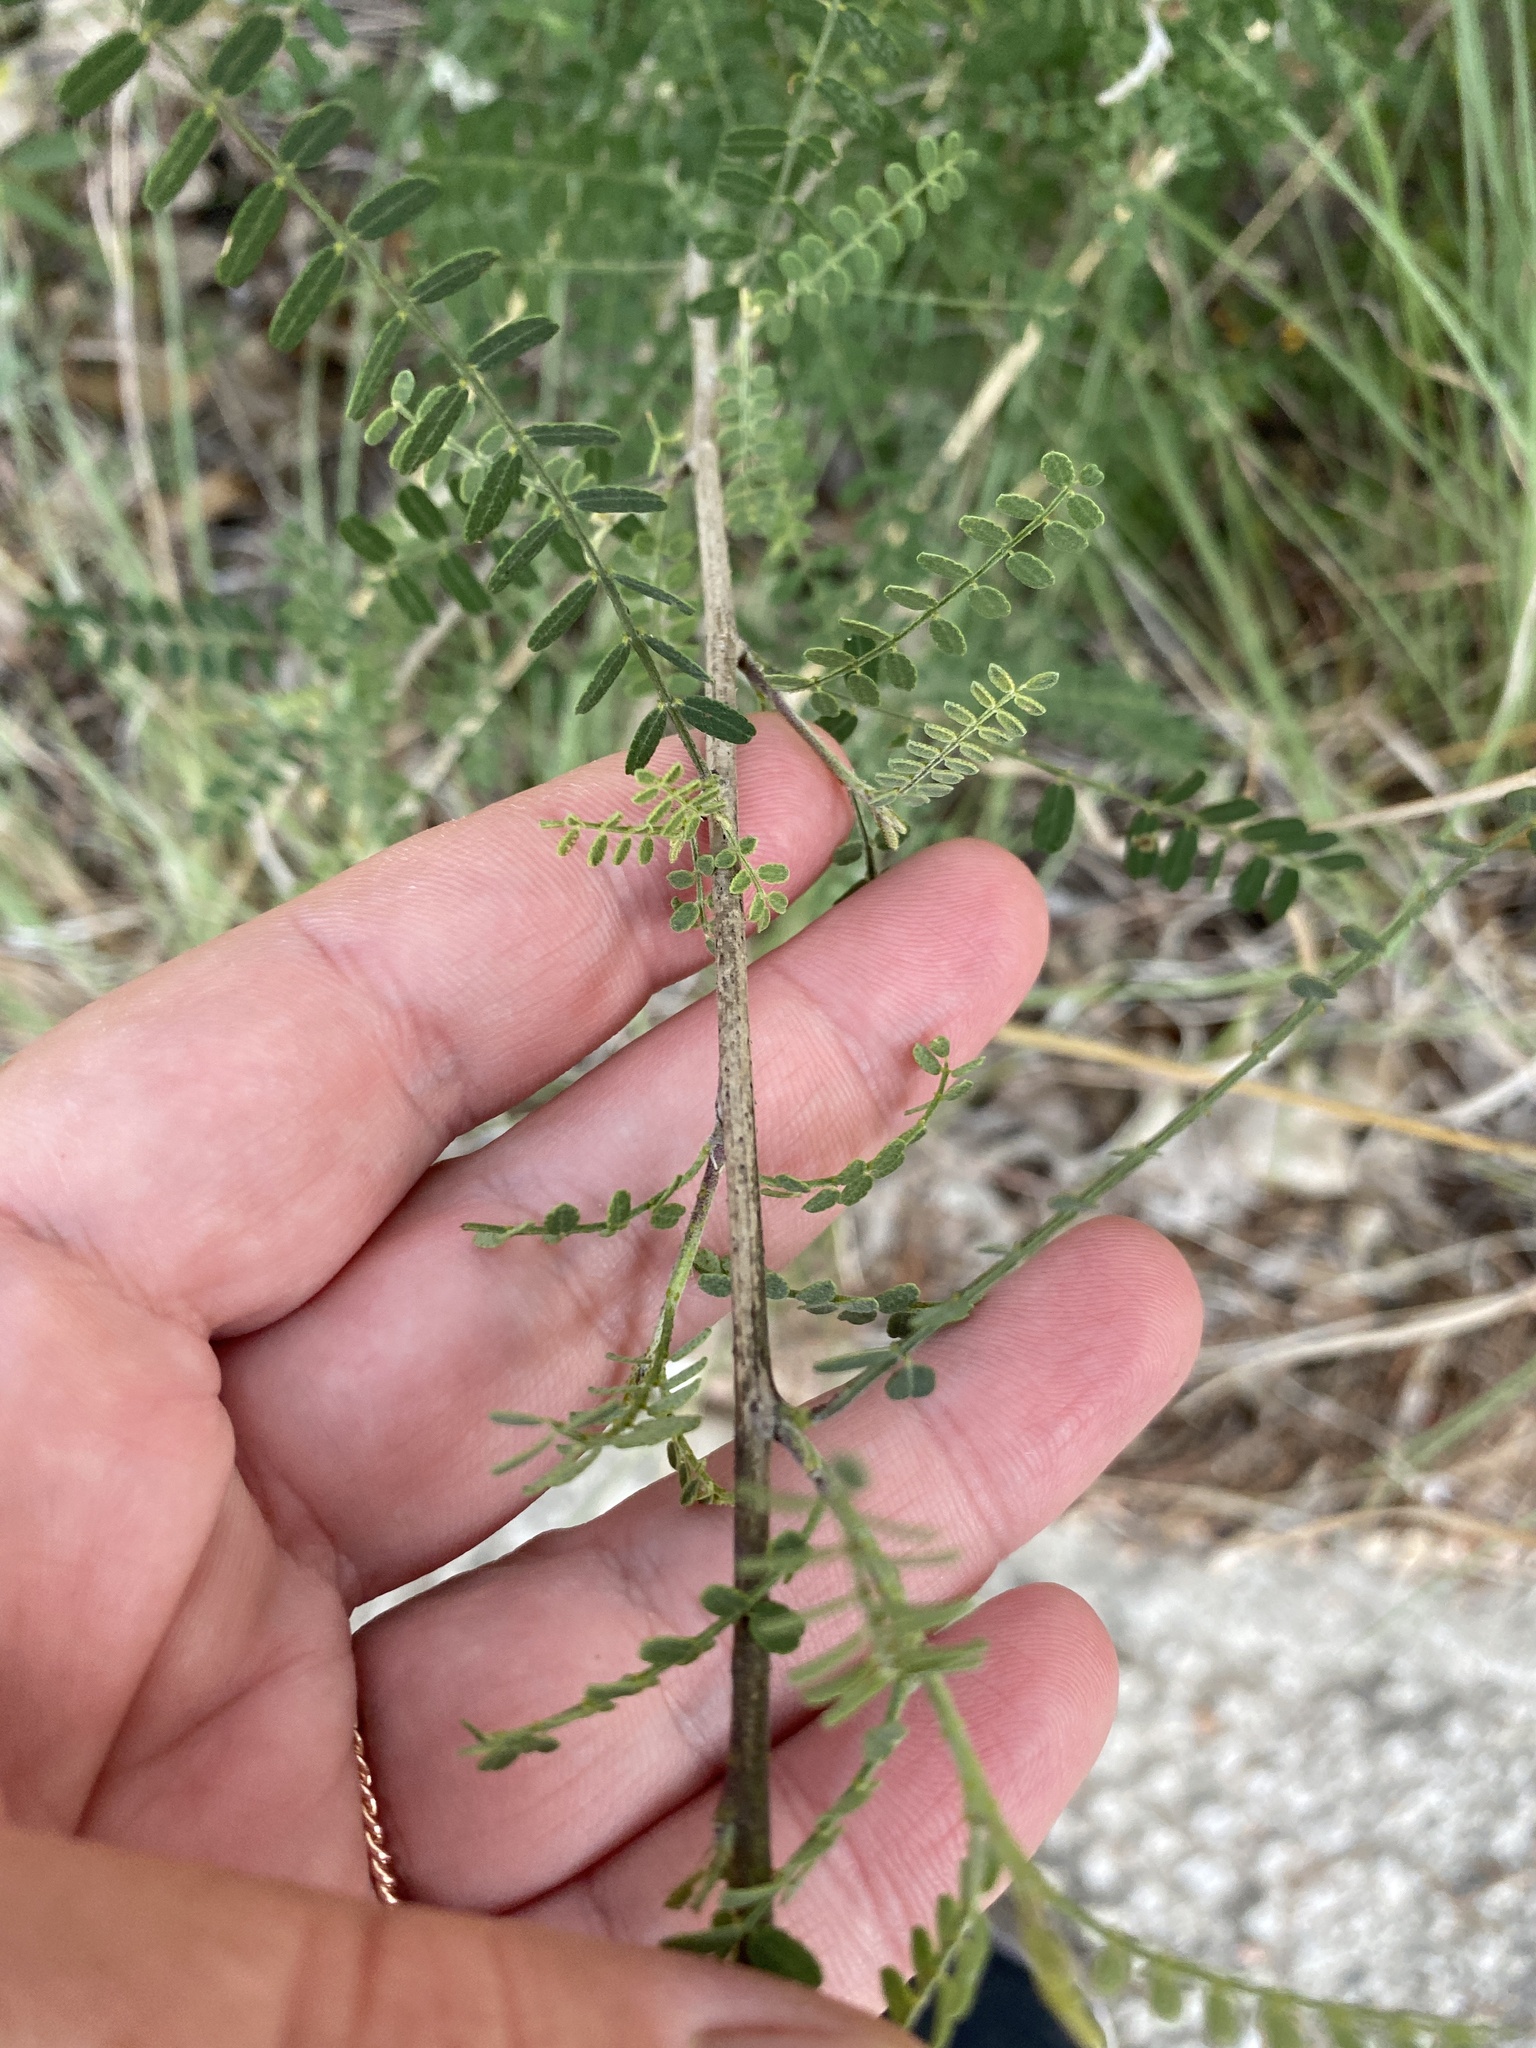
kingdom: Plantae
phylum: Tracheophyta
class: Magnoliopsida
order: Fabales
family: Fabaceae
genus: Eysenhardtia
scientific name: Eysenhardtia texana
